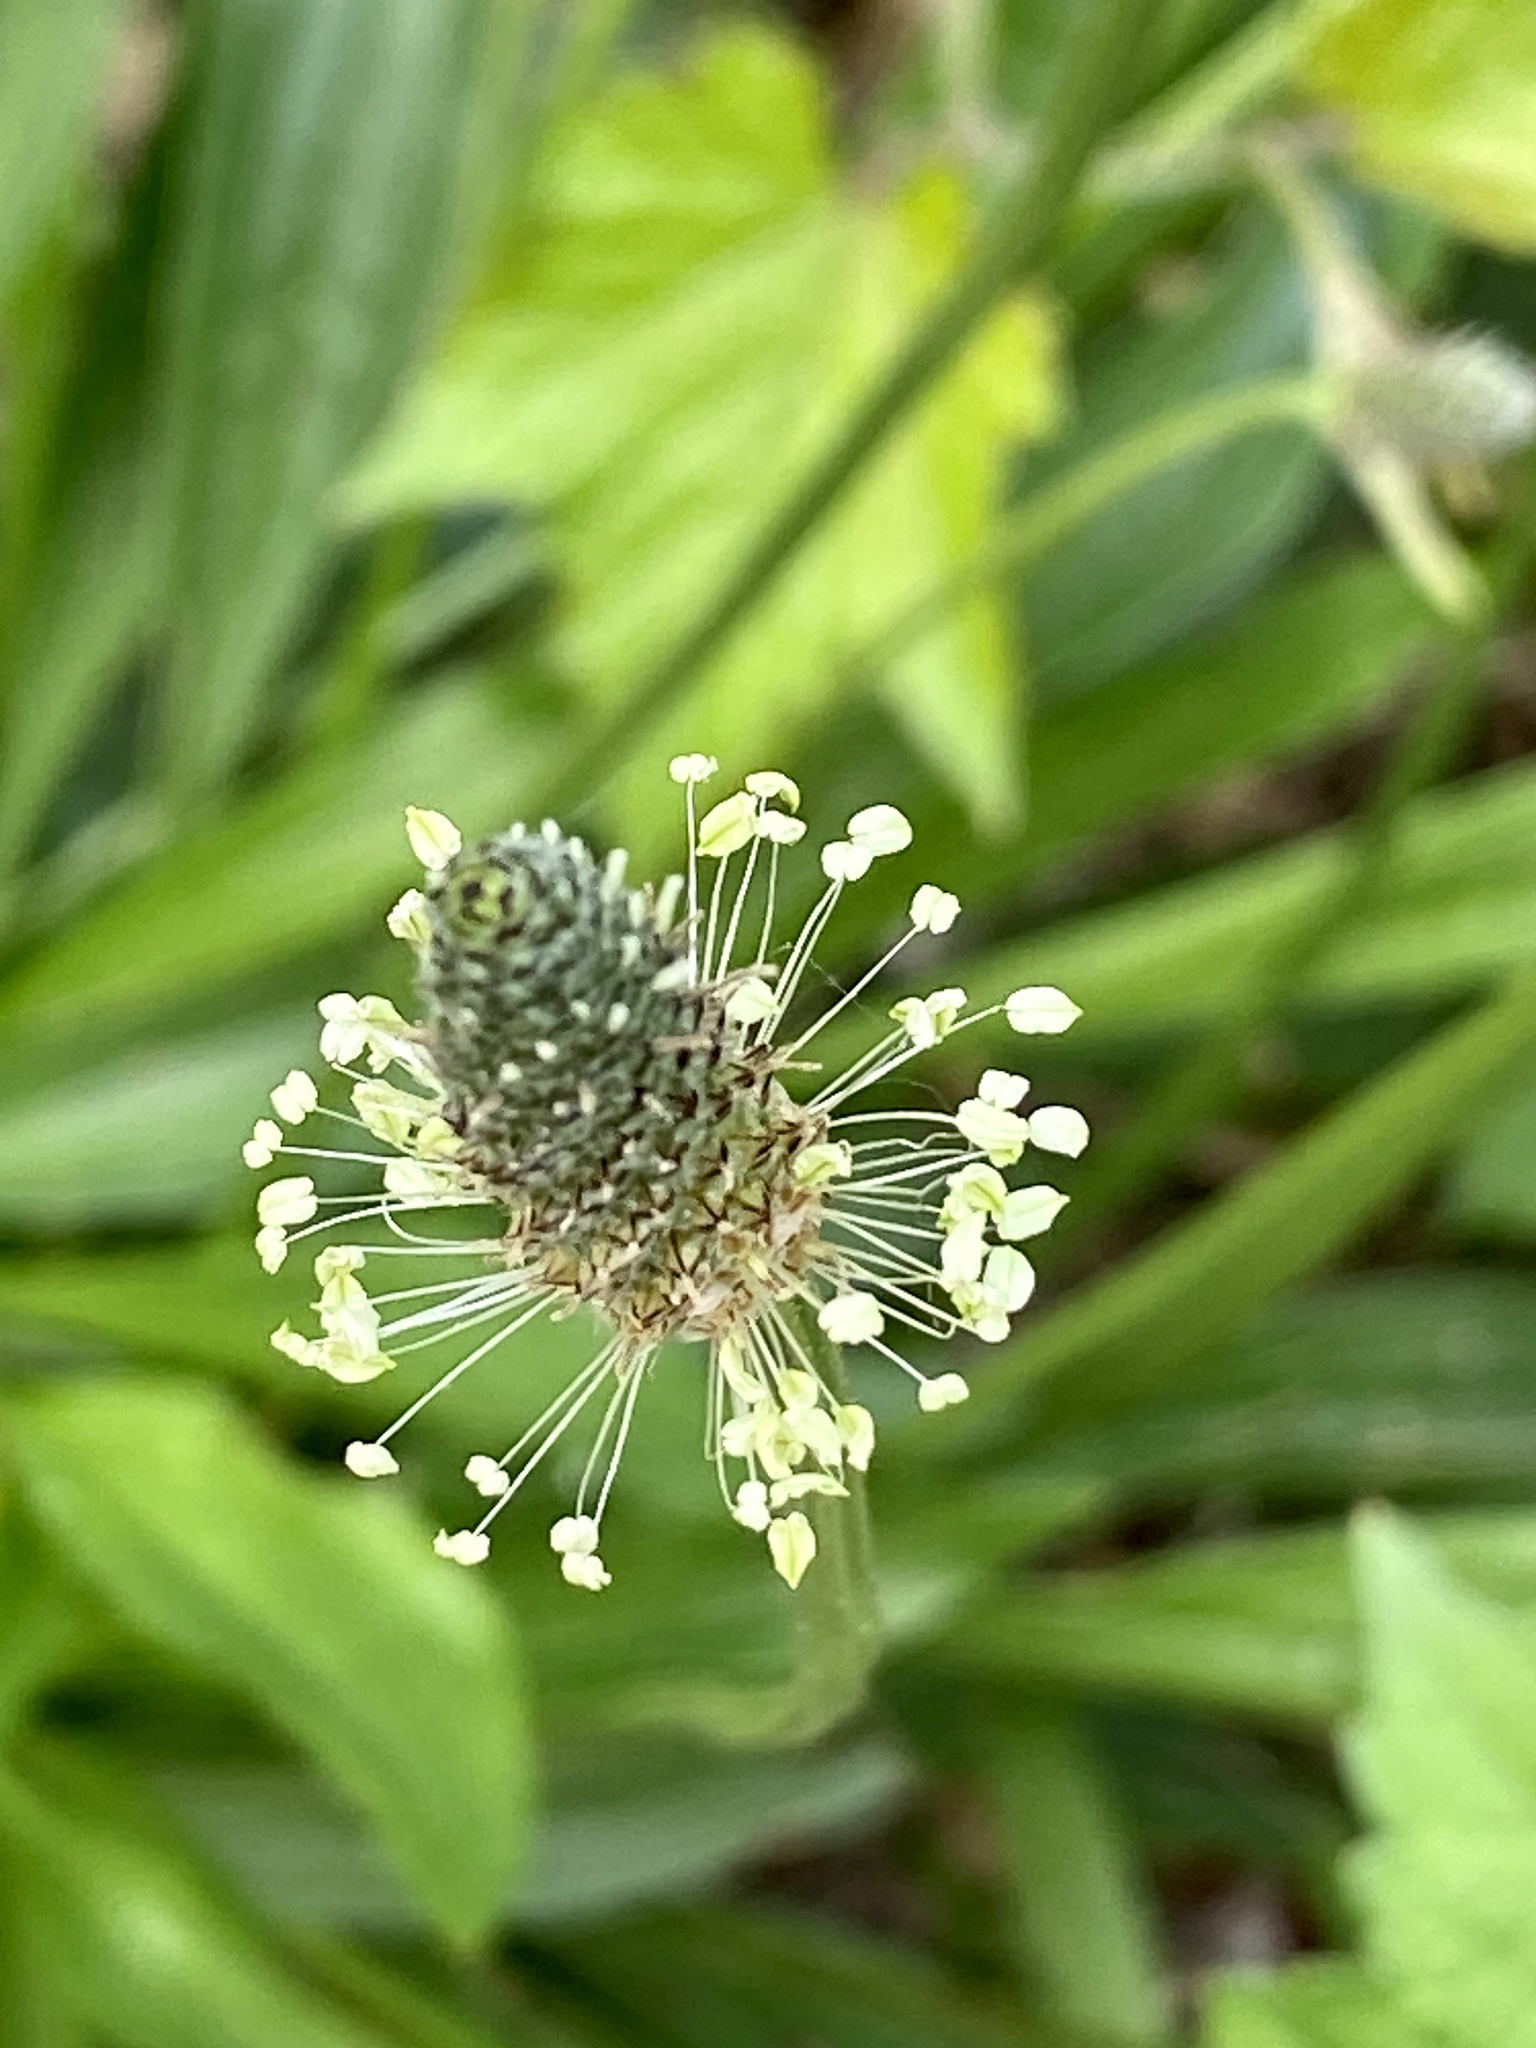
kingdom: Plantae
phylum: Tracheophyta
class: Magnoliopsida
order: Lamiales
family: Plantaginaceae
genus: Plantago
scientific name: Plantago lanceolata
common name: Ribwort plantain
